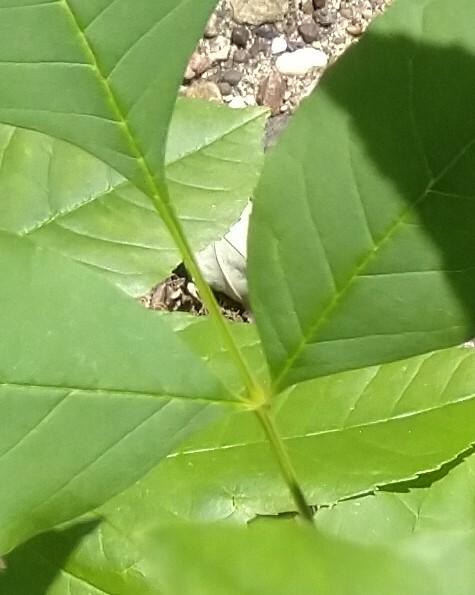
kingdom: Plantae
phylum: Tracheophyta
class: Magnoliopsida
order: Lamiales
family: Oleaceae
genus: Fraxinus
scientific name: Fraxinus pennsylvanica
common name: Green ash
